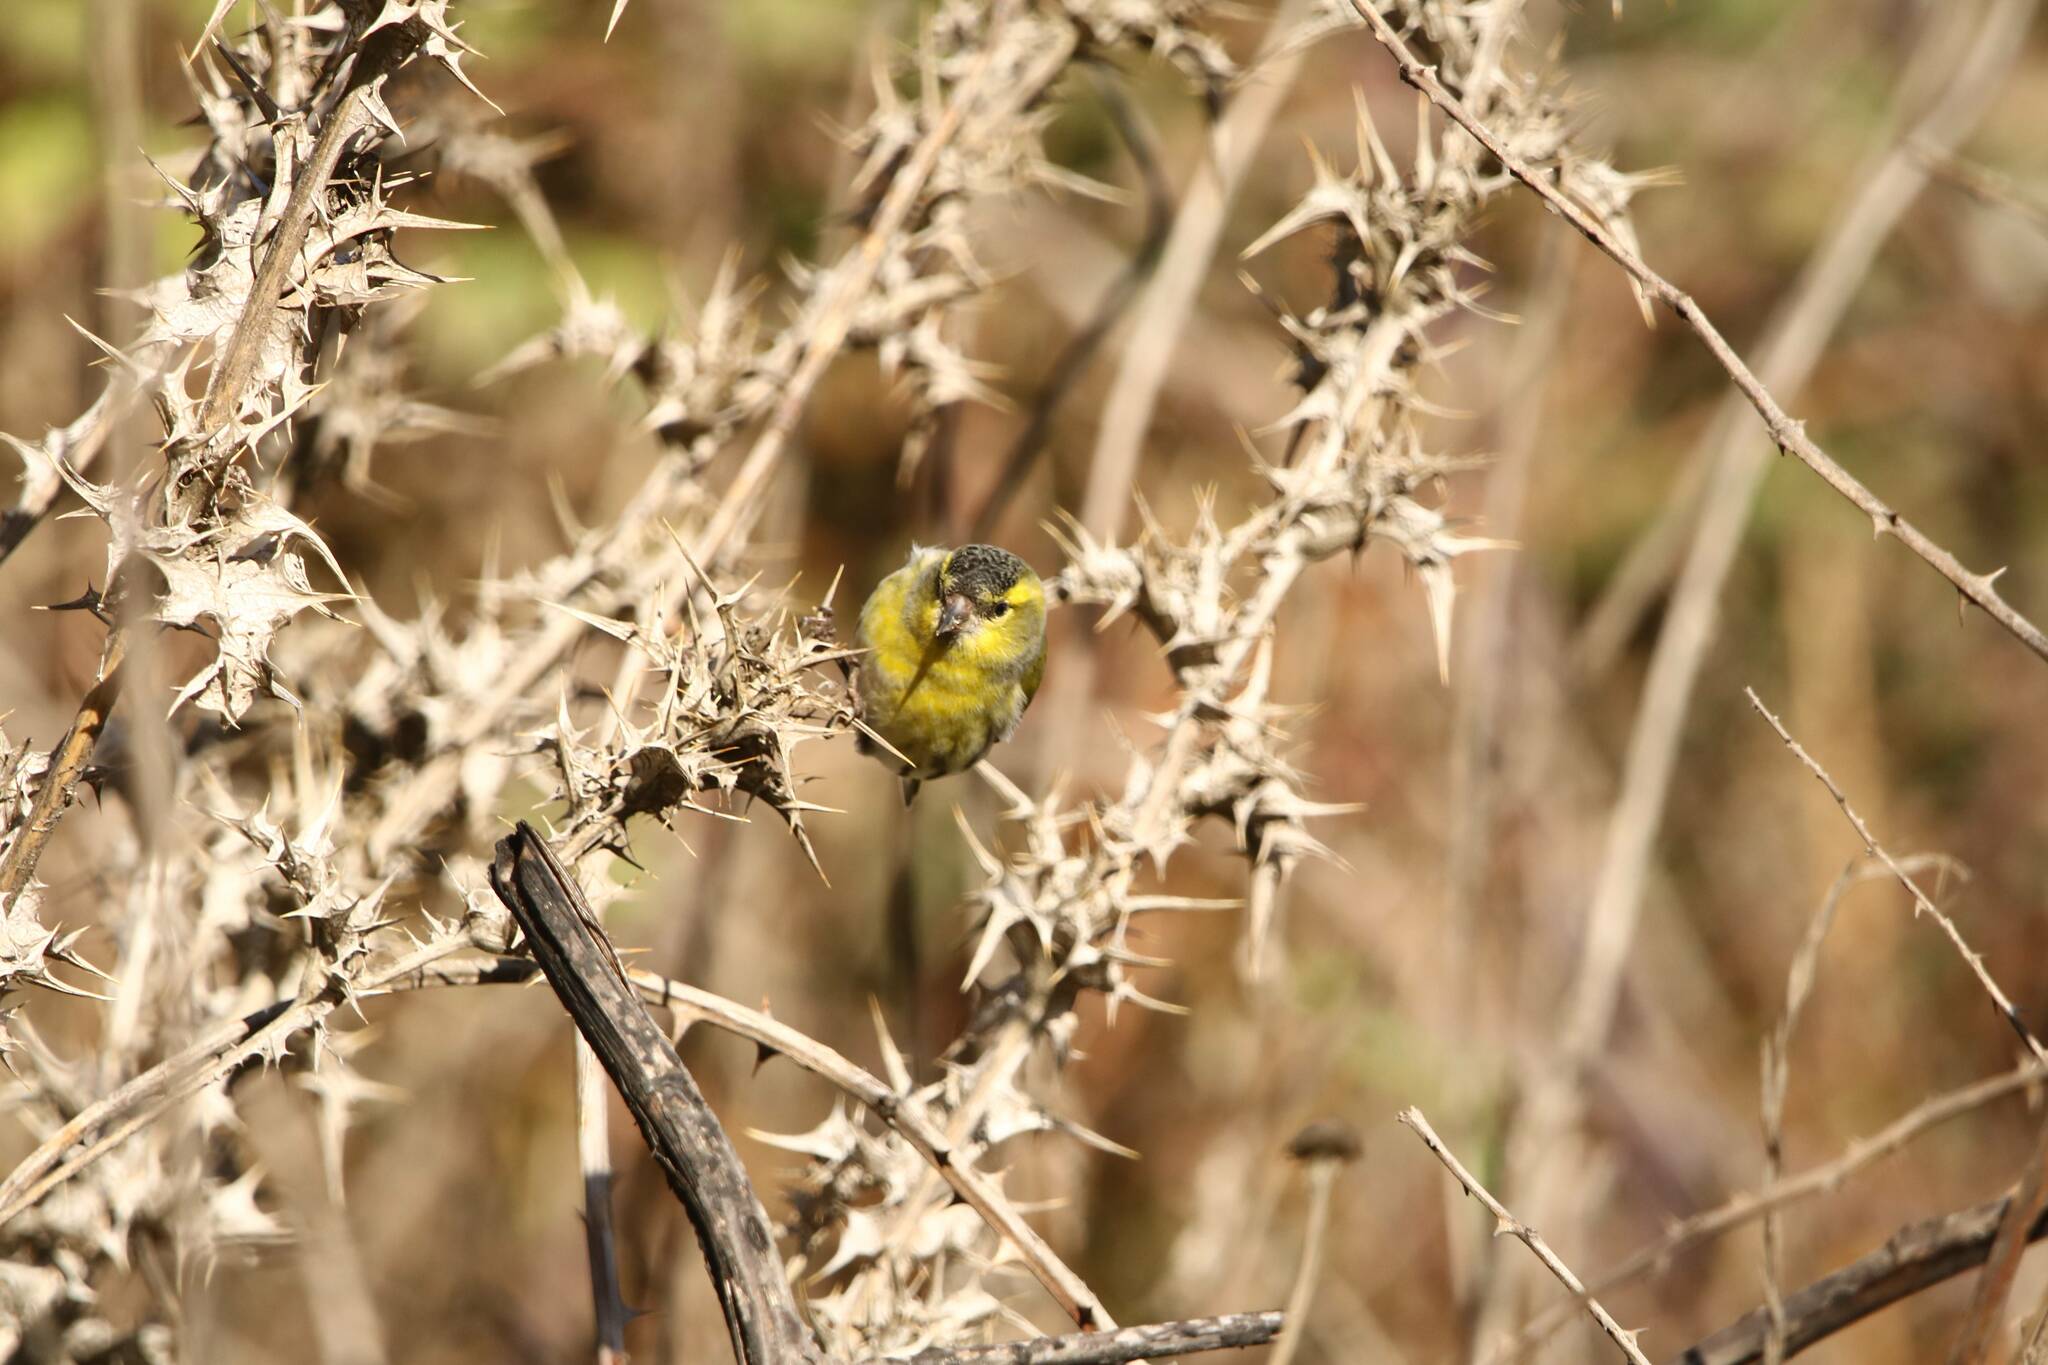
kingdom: Animalia
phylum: Chordata
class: Aves
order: Passeriformes
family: Fringillidae
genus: Spinus
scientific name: Spinus spinus
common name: Eurasian siskin
